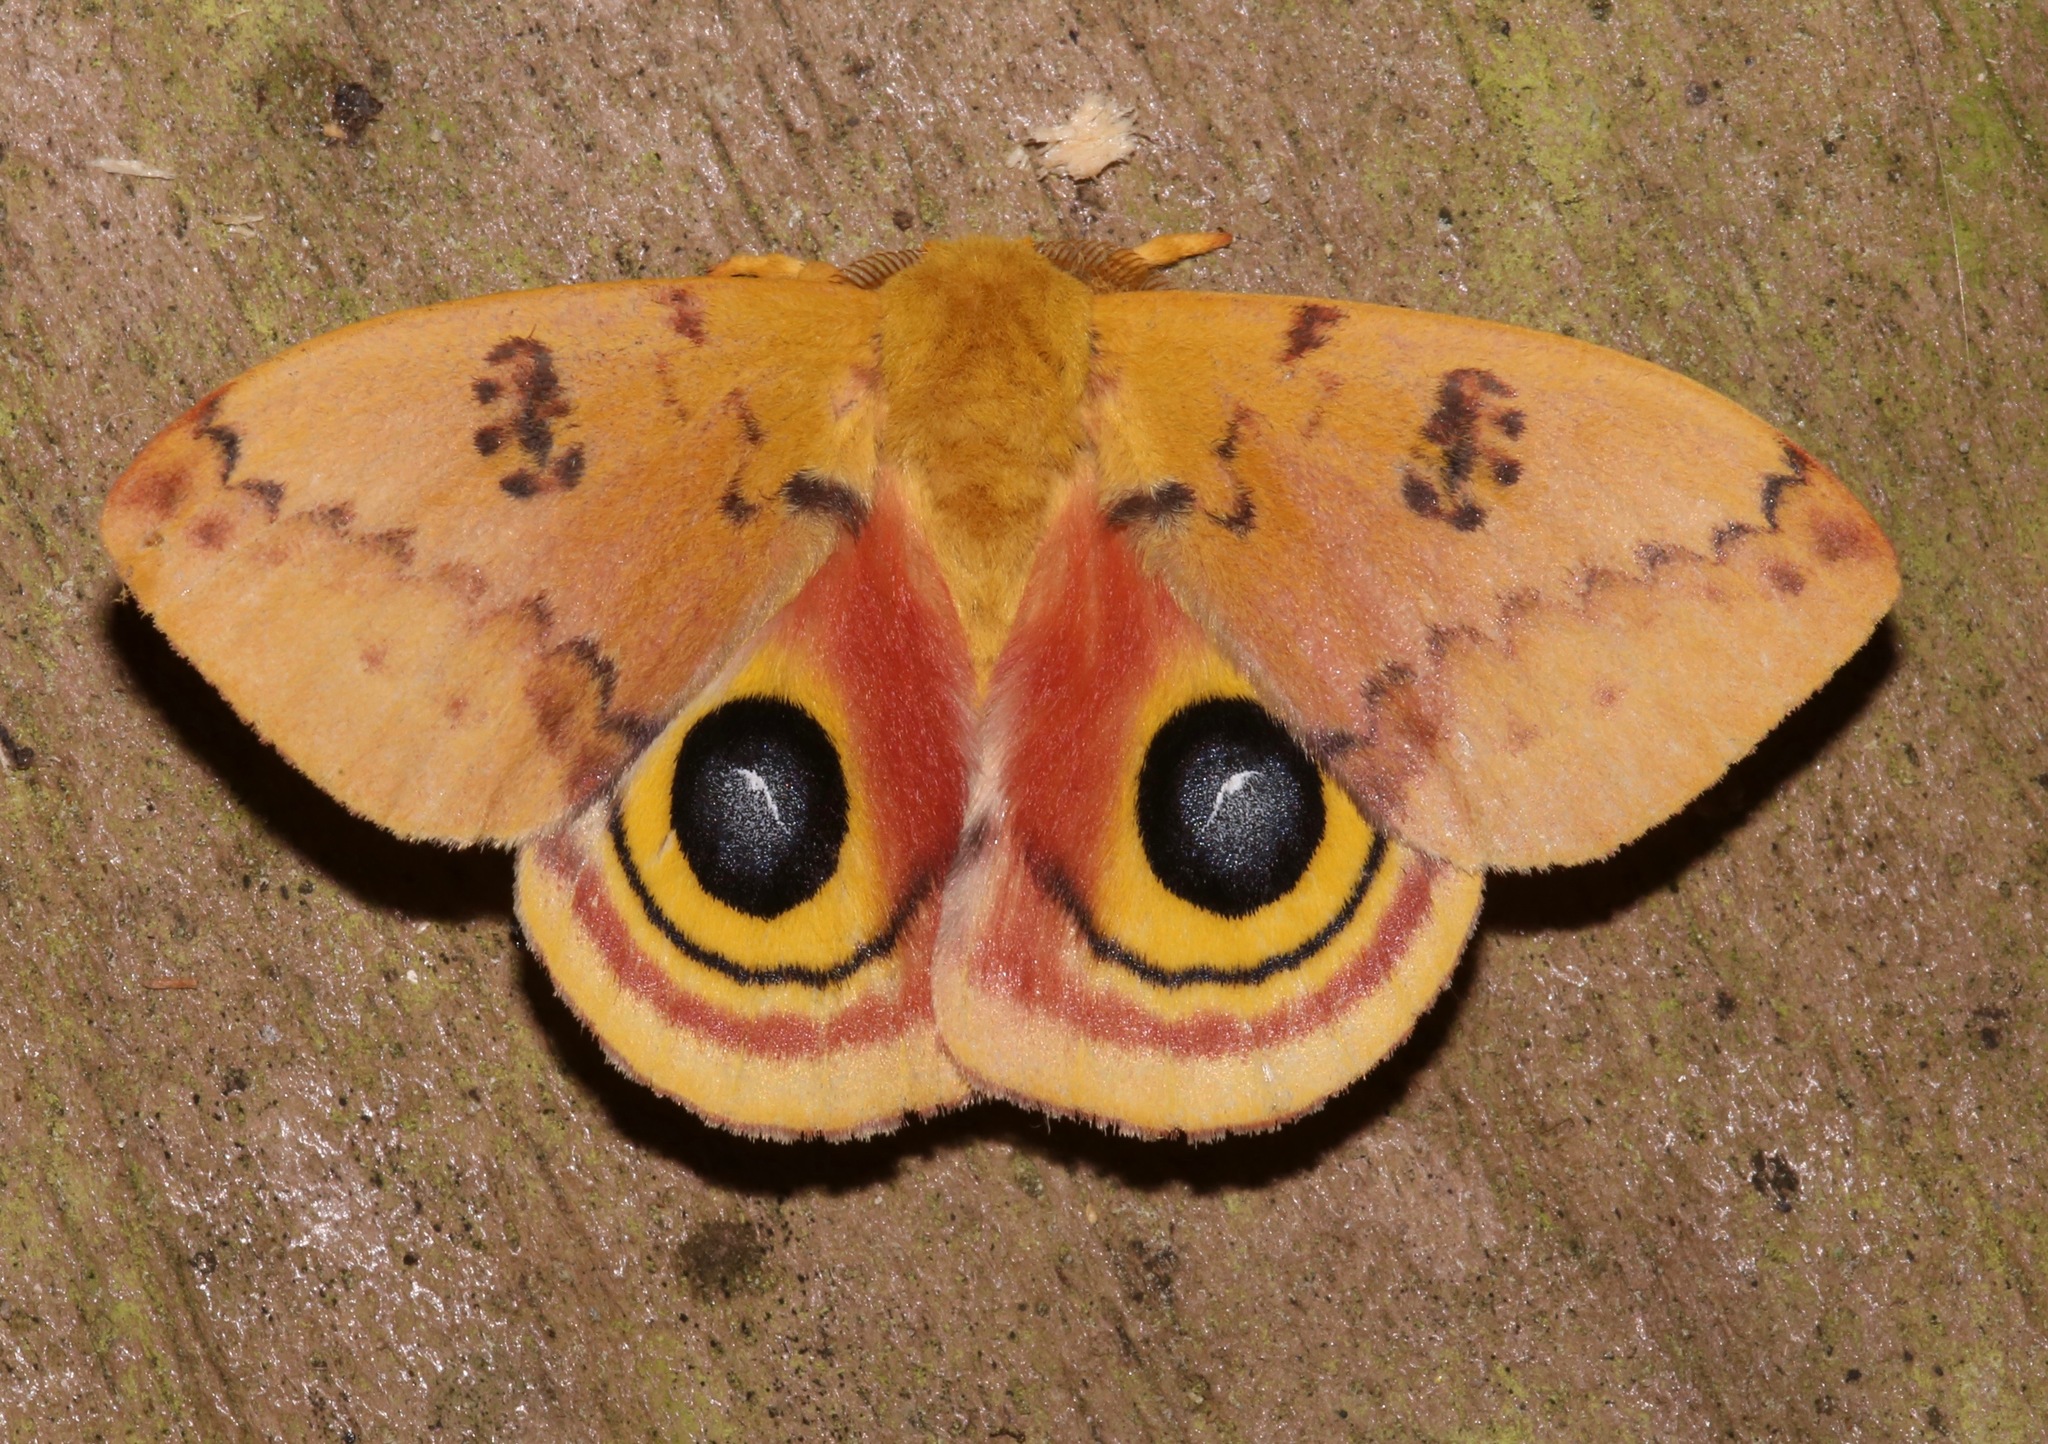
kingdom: Animalia
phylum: Arthropoda
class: Insecta
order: Lepidoptera
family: Saturniidae
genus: Automeris
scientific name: Automeris io
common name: Io moth
